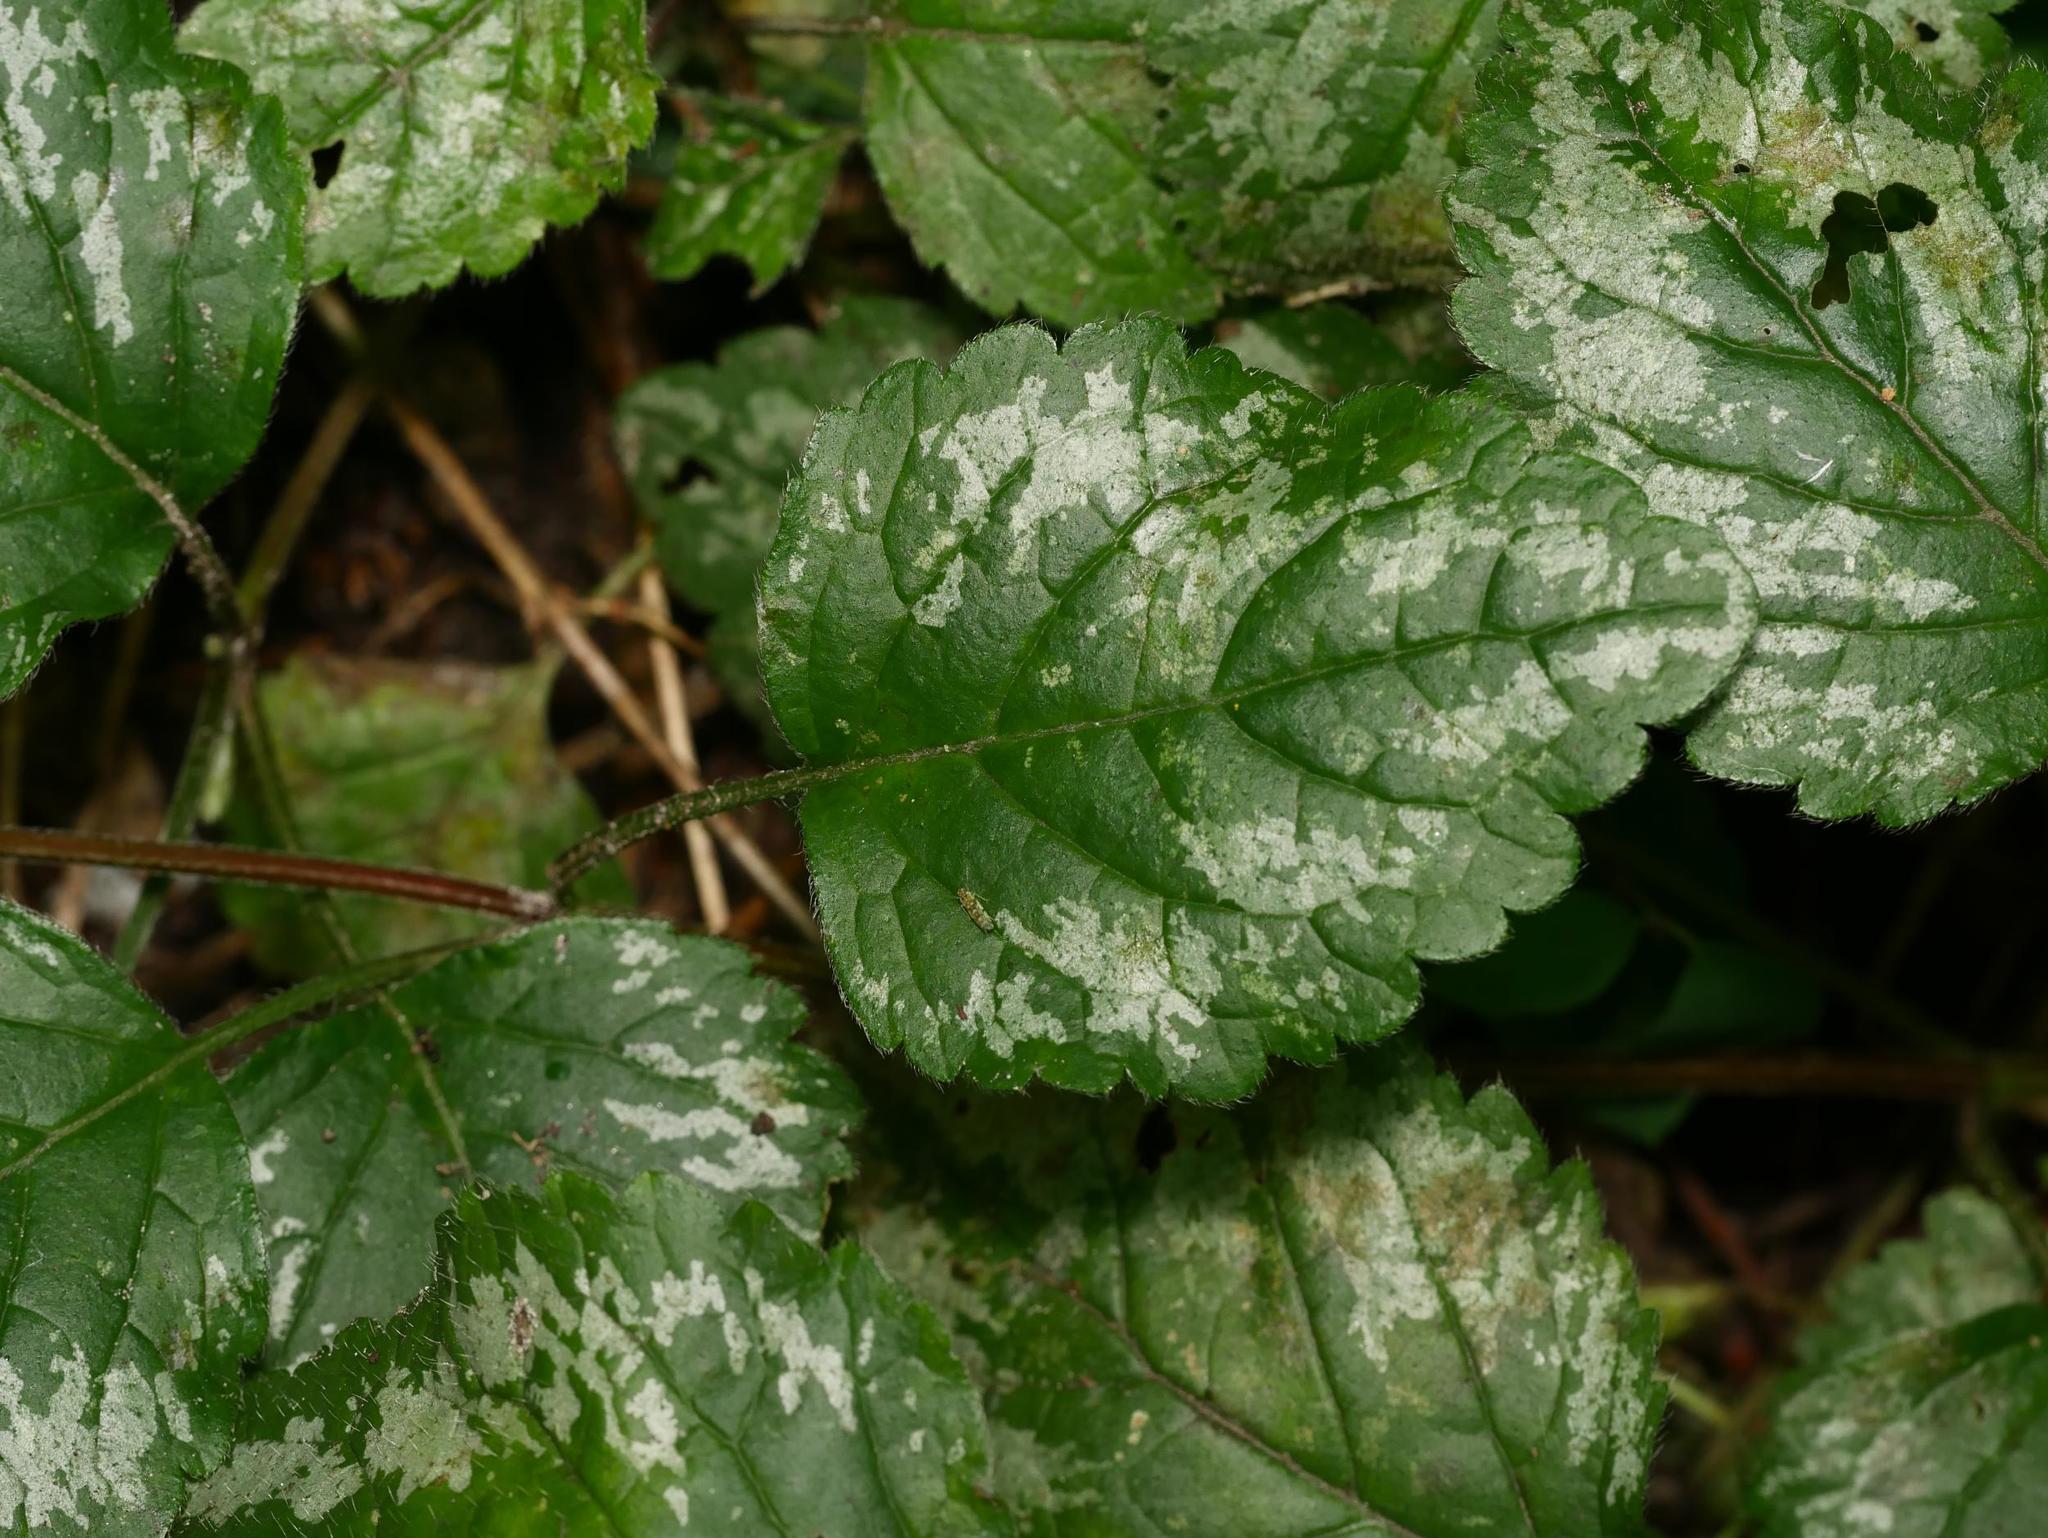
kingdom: Plantae
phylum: Tracheophyta
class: Magnoliopsida
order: Lamiales
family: Lamiaceae
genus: Lamium
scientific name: Lamium galeobdolon
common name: Yellow archangel
